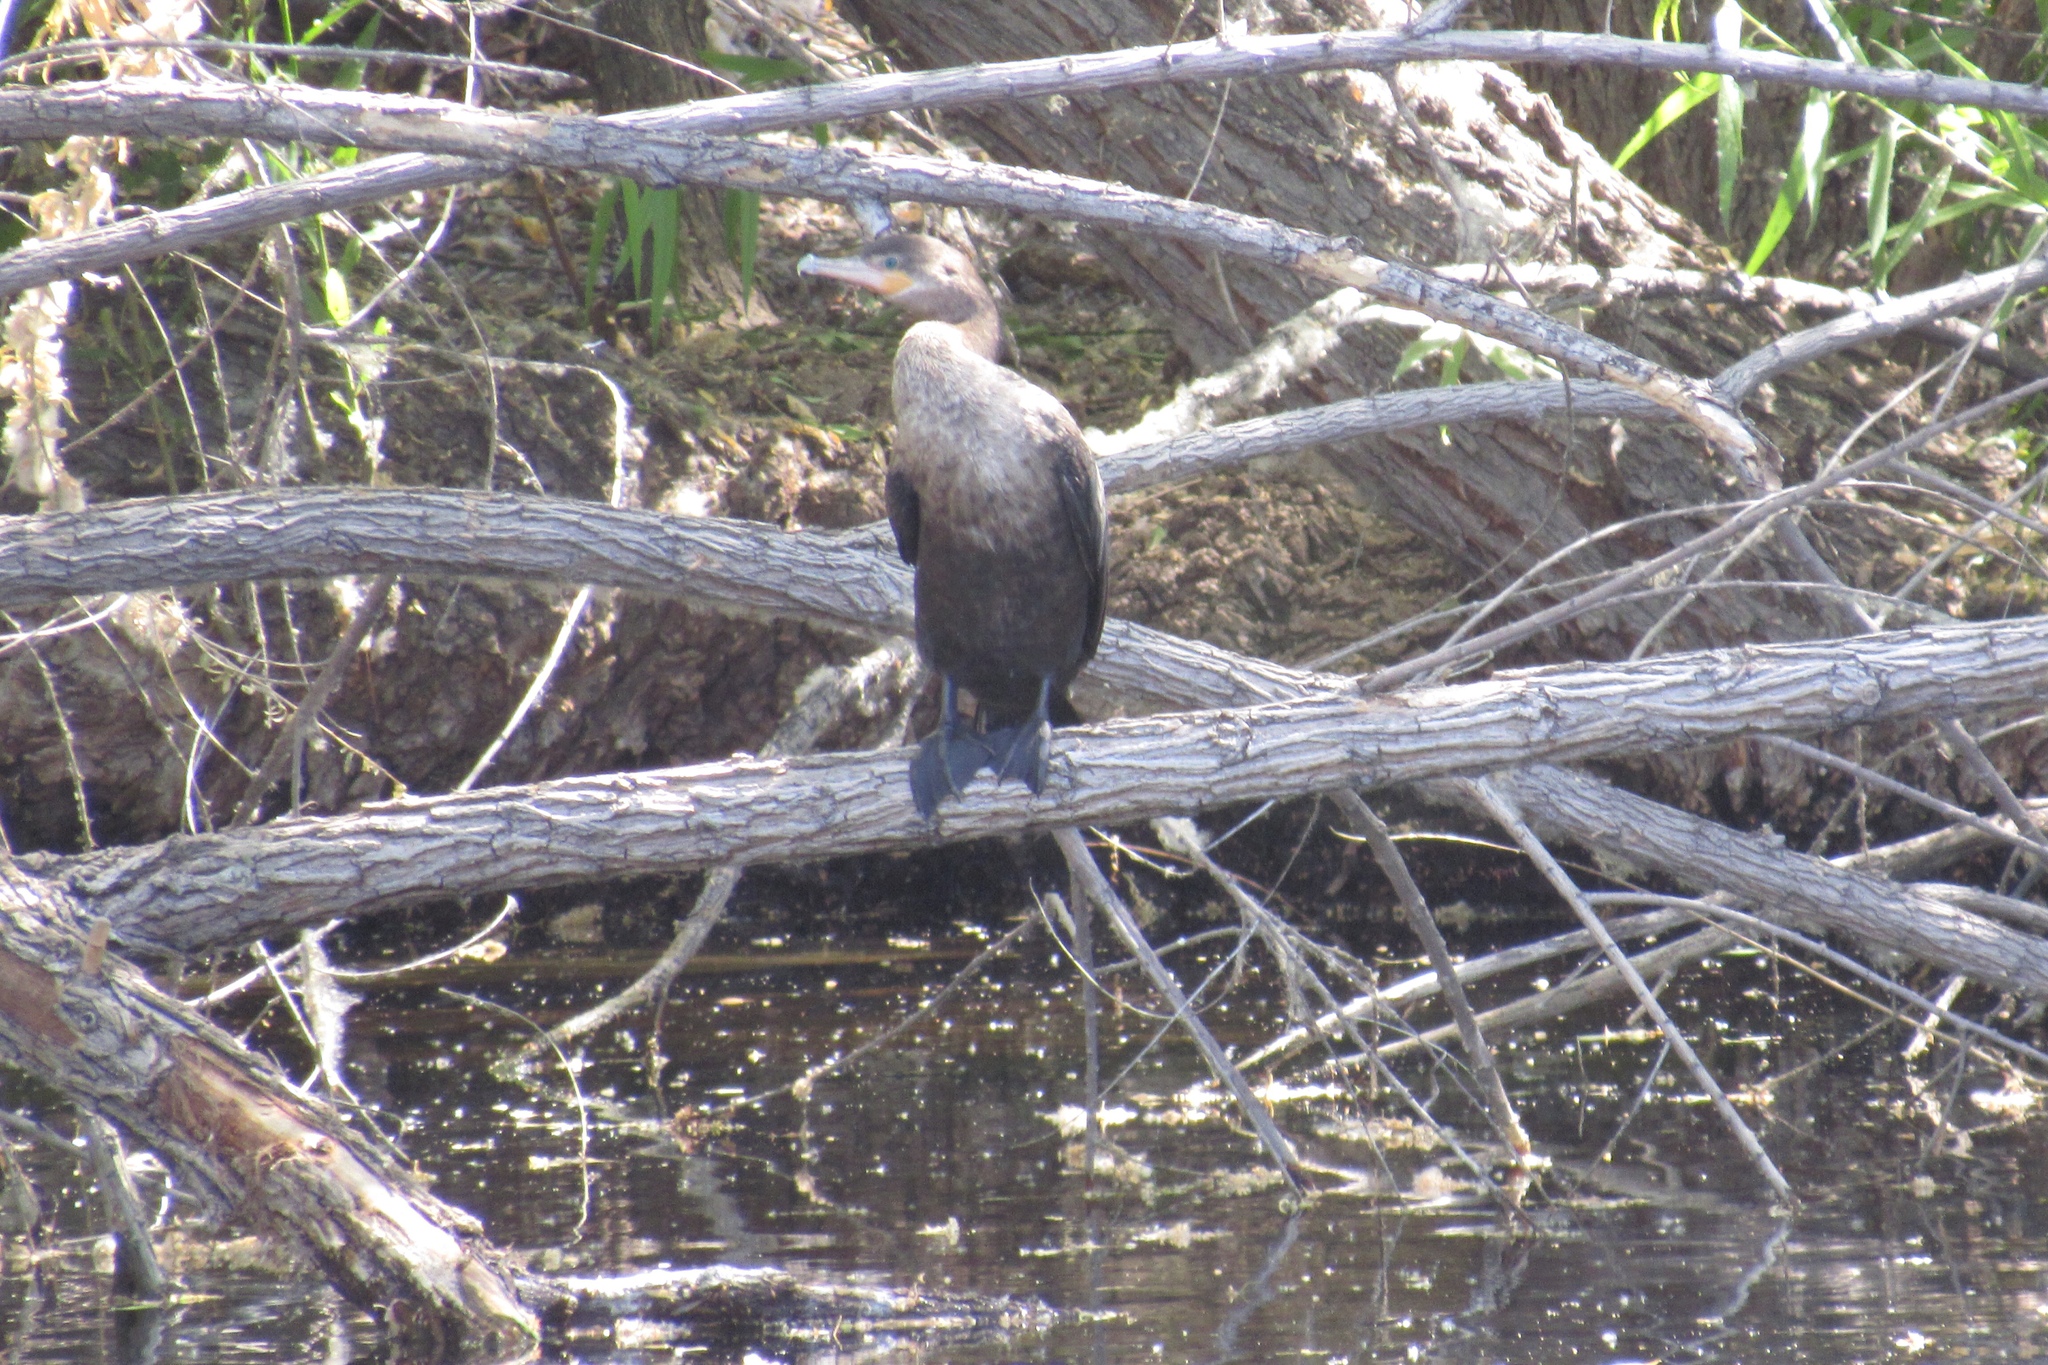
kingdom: Animalia
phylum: Chordata
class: Aves
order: Suliformes
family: Phalacrocoracidae
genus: Phalacrocorax
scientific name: Phalacrocorax brasilianus
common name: Neotropic cormorant
